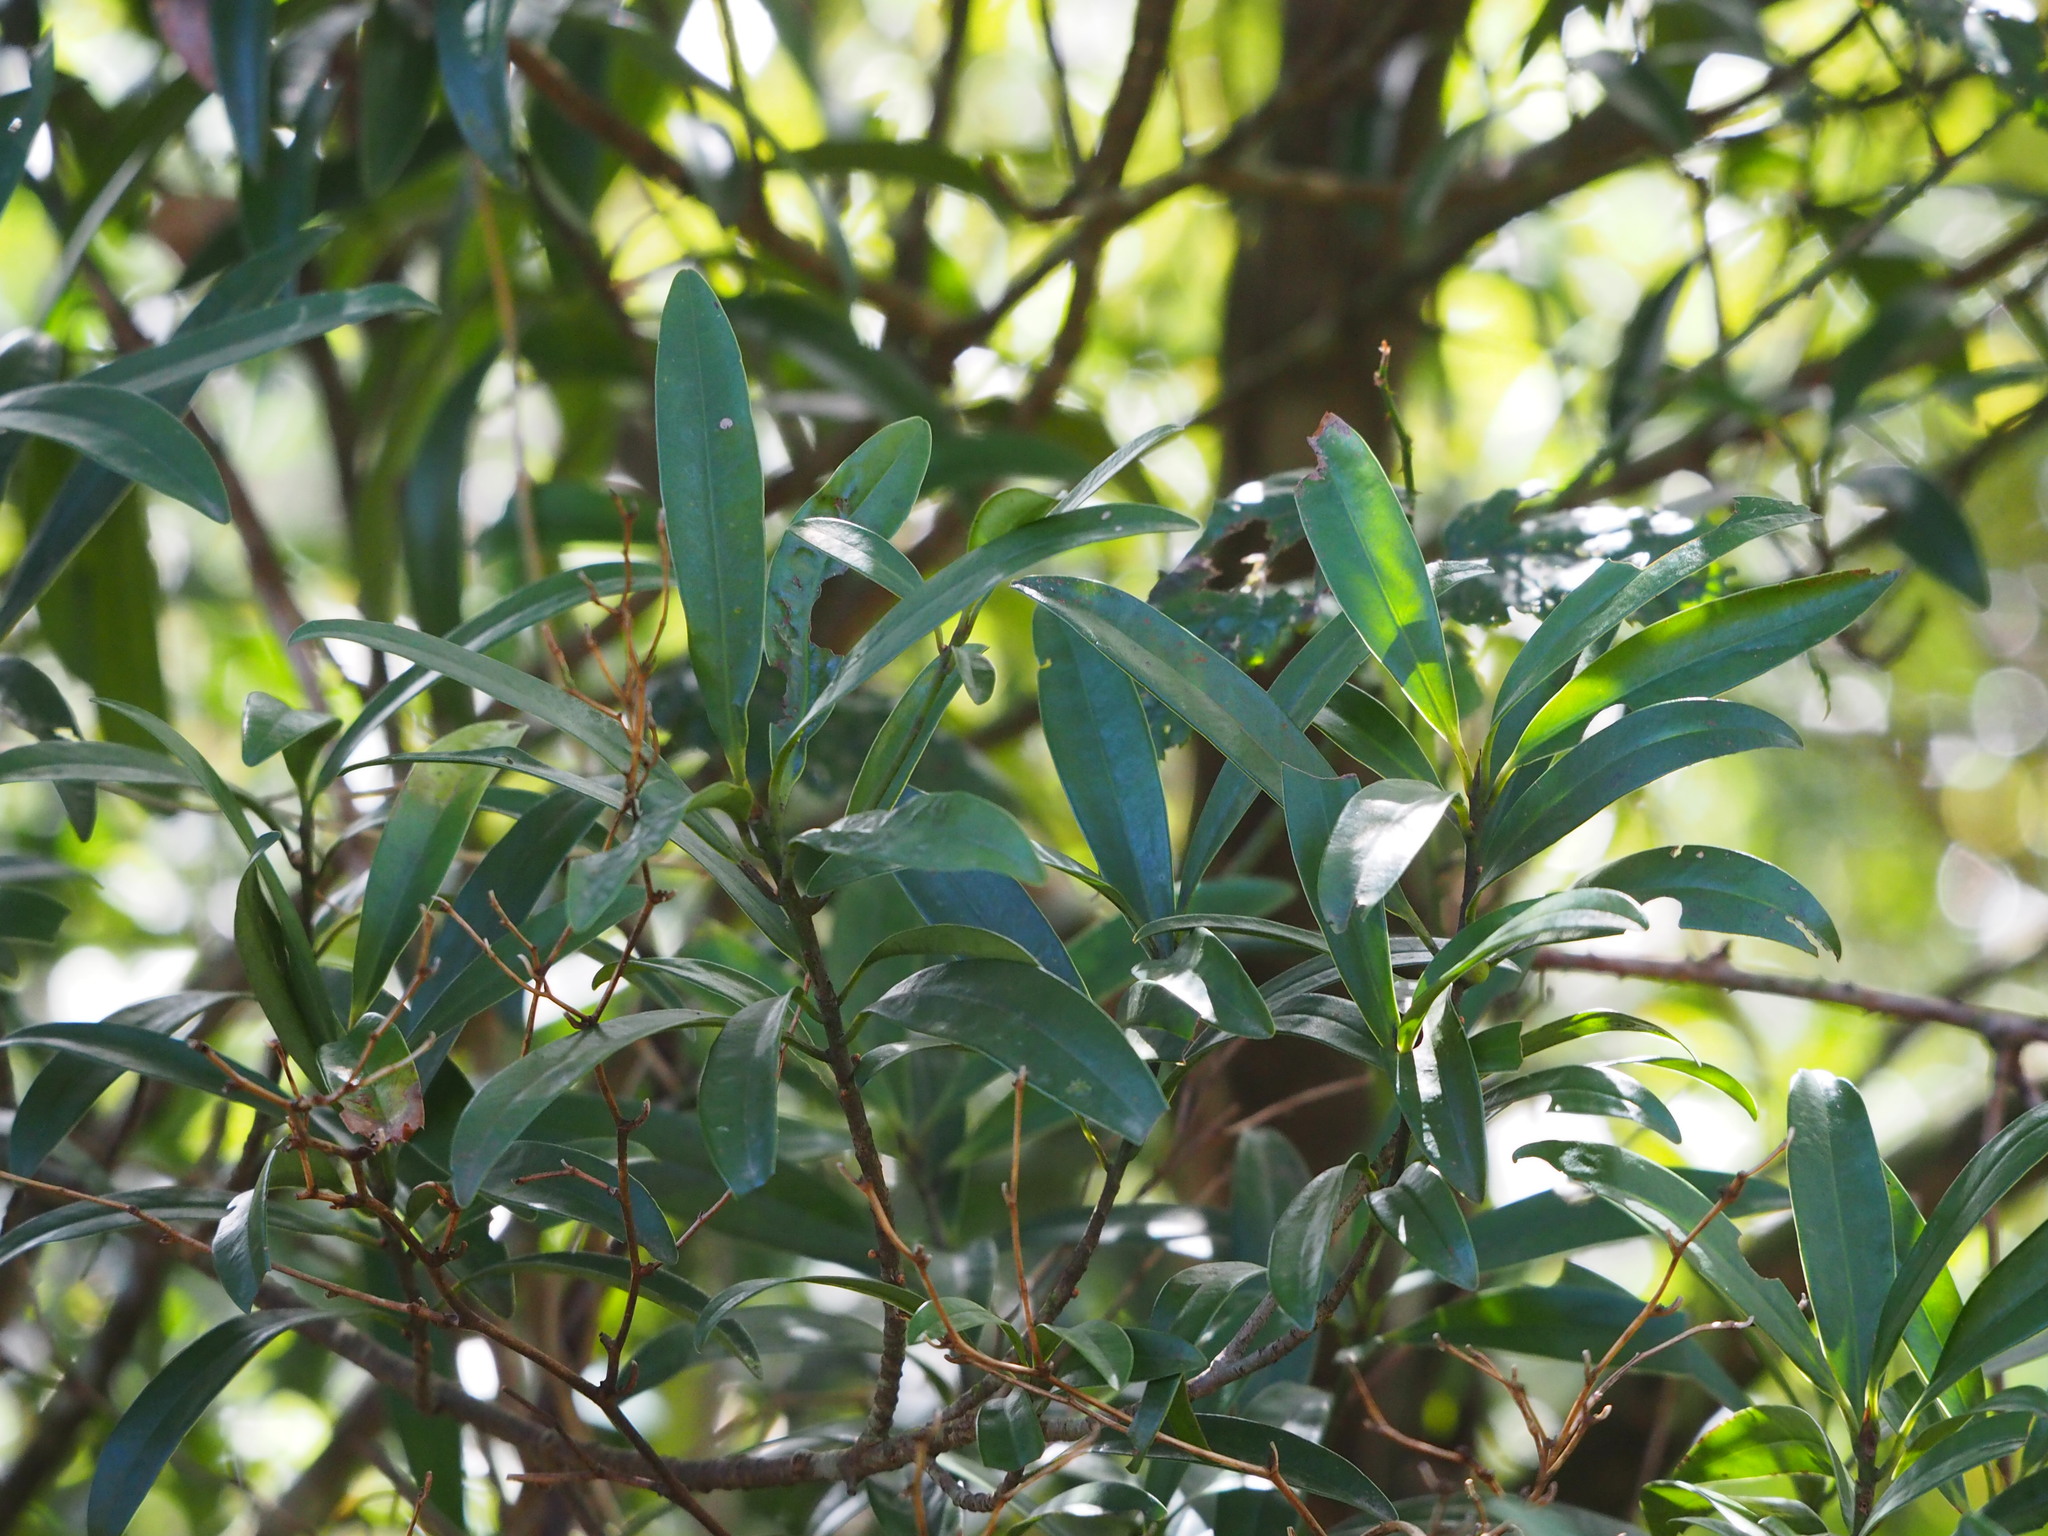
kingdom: Plantae
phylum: Tracheophyta
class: Magnoliopsida
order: Ericales
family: Primulaceae
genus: Myrsine
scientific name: Myrsine seguinii
